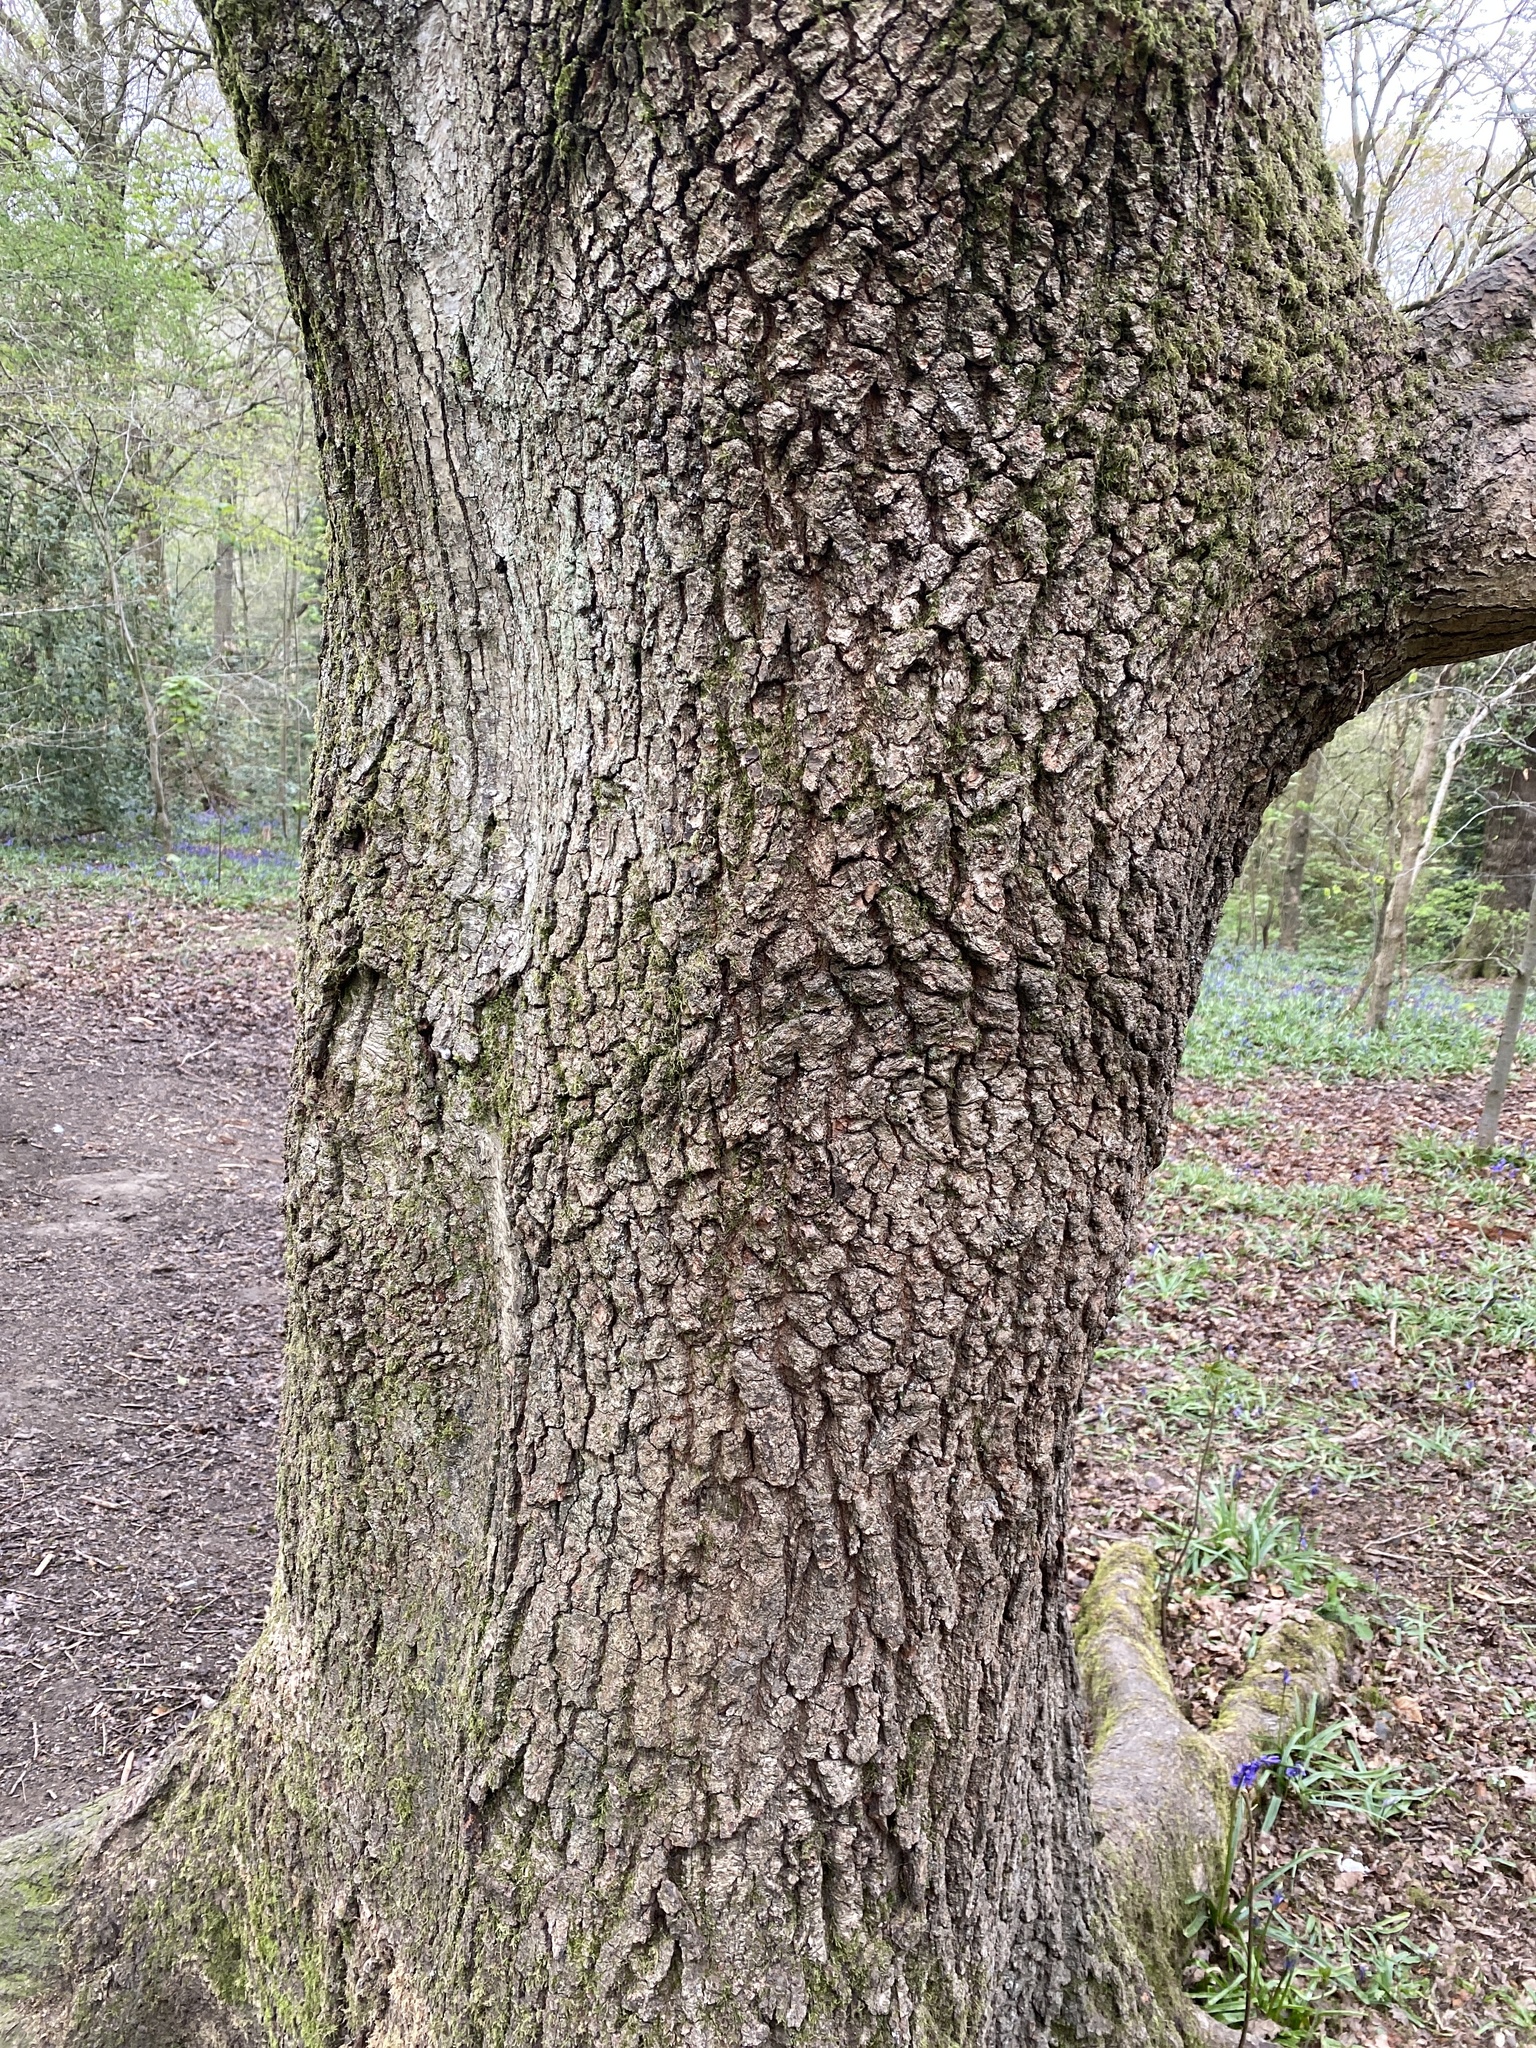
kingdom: Plantae
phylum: Tracheophyta
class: Magnoliopsida
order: Fagales
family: Fagaceae
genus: Quercus
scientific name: Quercus robur
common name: Pedunculate oak
